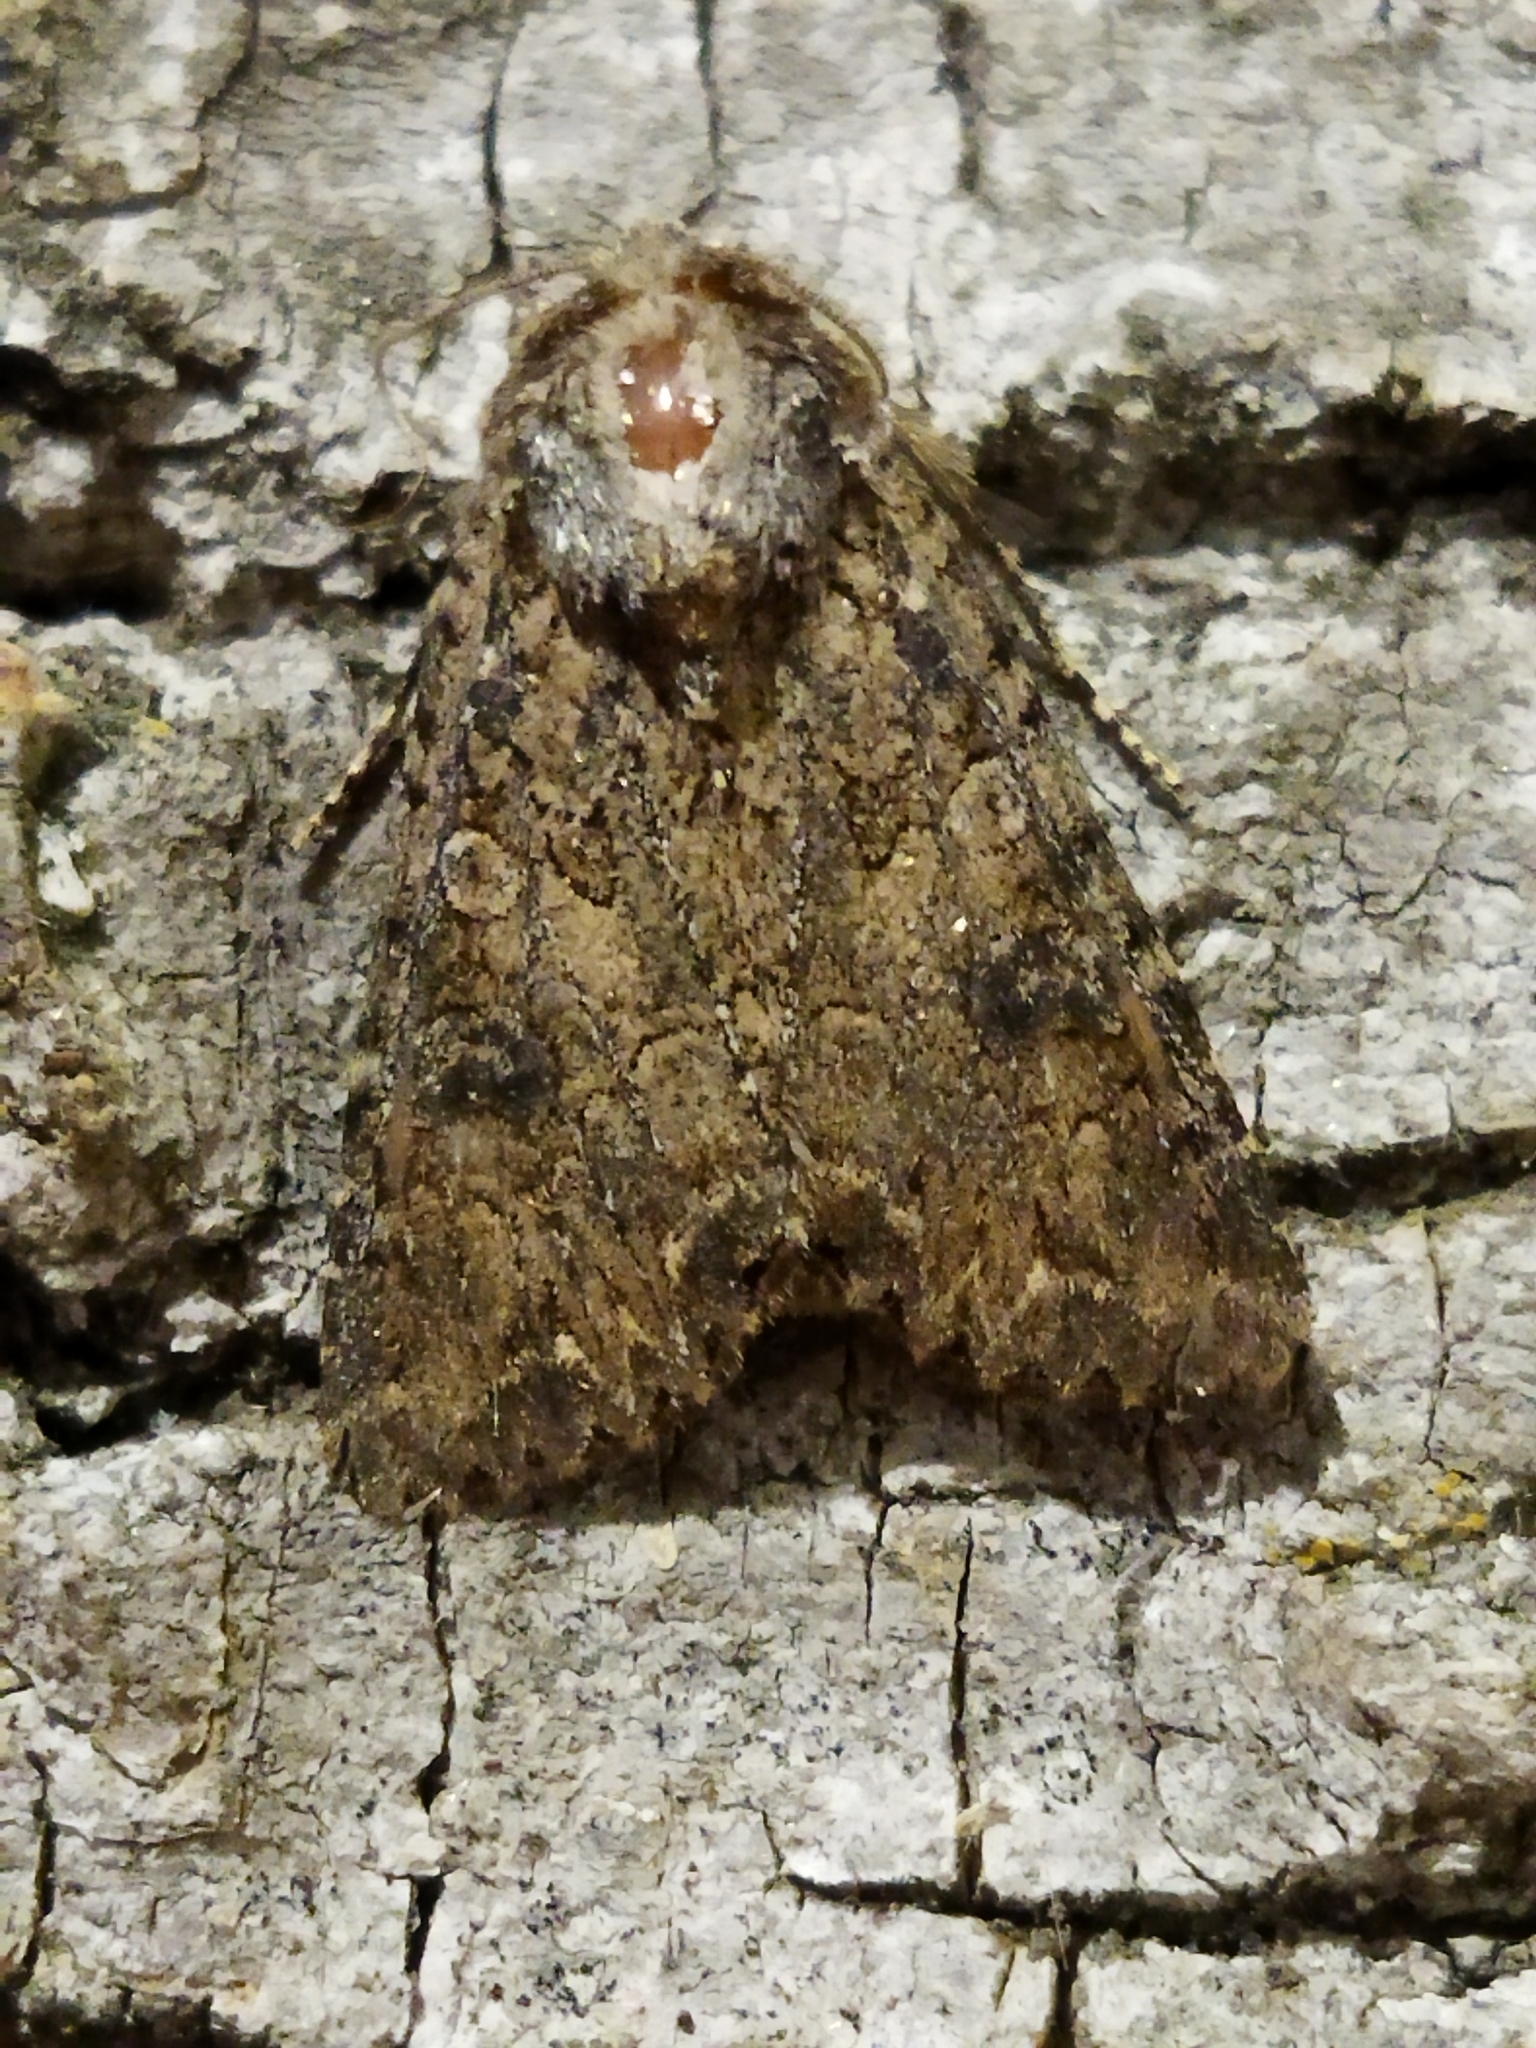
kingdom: Animalia
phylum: Arthropoda
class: Insecta
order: Lepidoptera
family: Noctuidae
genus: Anarta
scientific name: Anarta trifolii
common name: Clover cutworm moth
